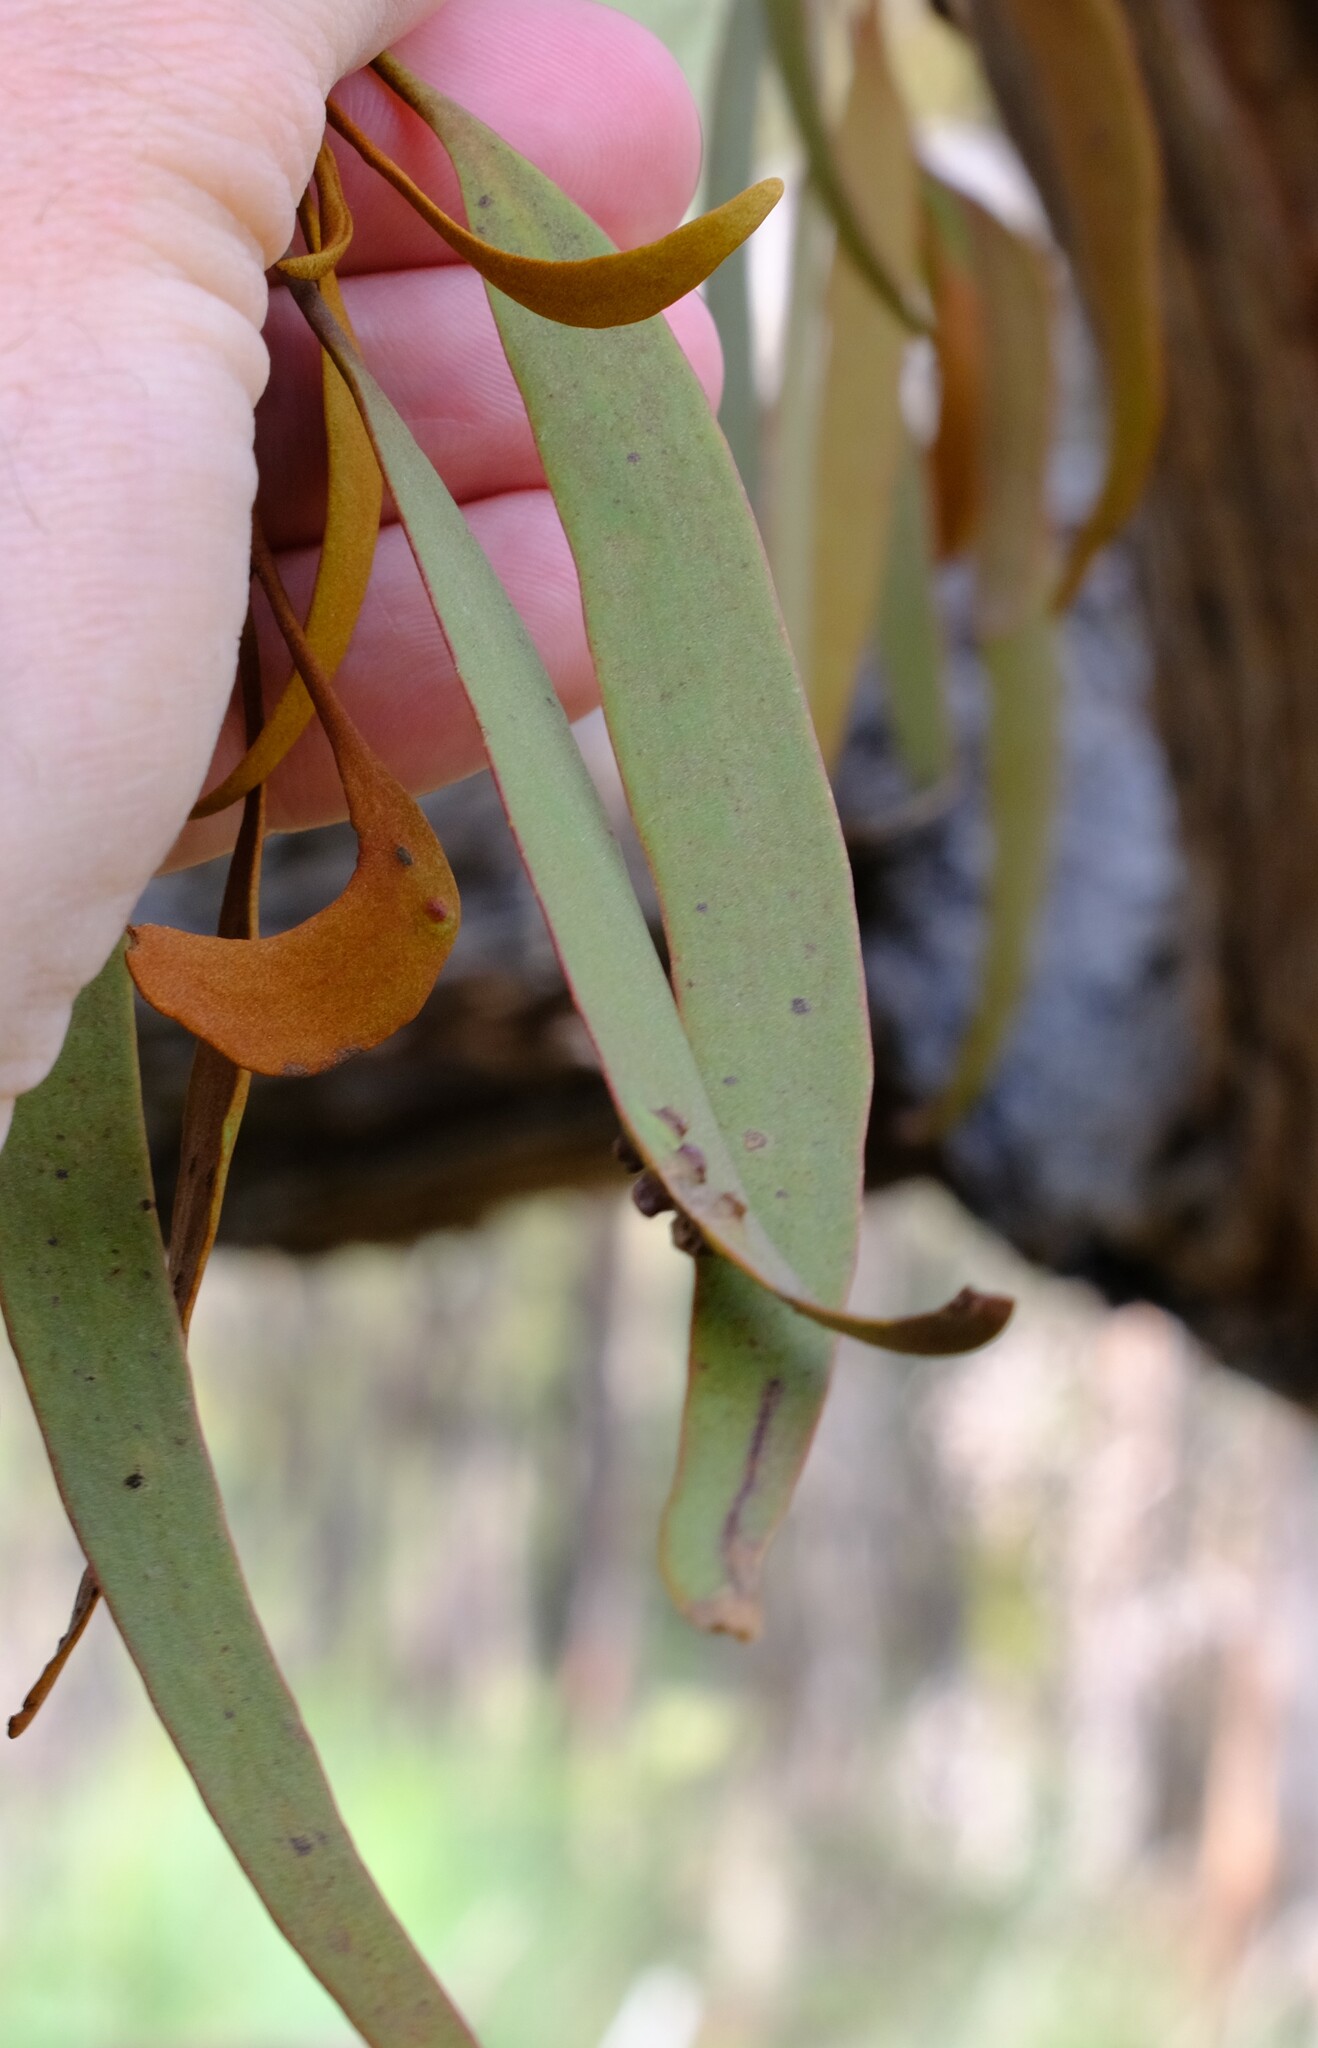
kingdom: Plantae
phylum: Tracheophyta
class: Magnoliopsida
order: Santalales
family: Loranthaceae
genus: Amyema
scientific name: Amyema pendula
